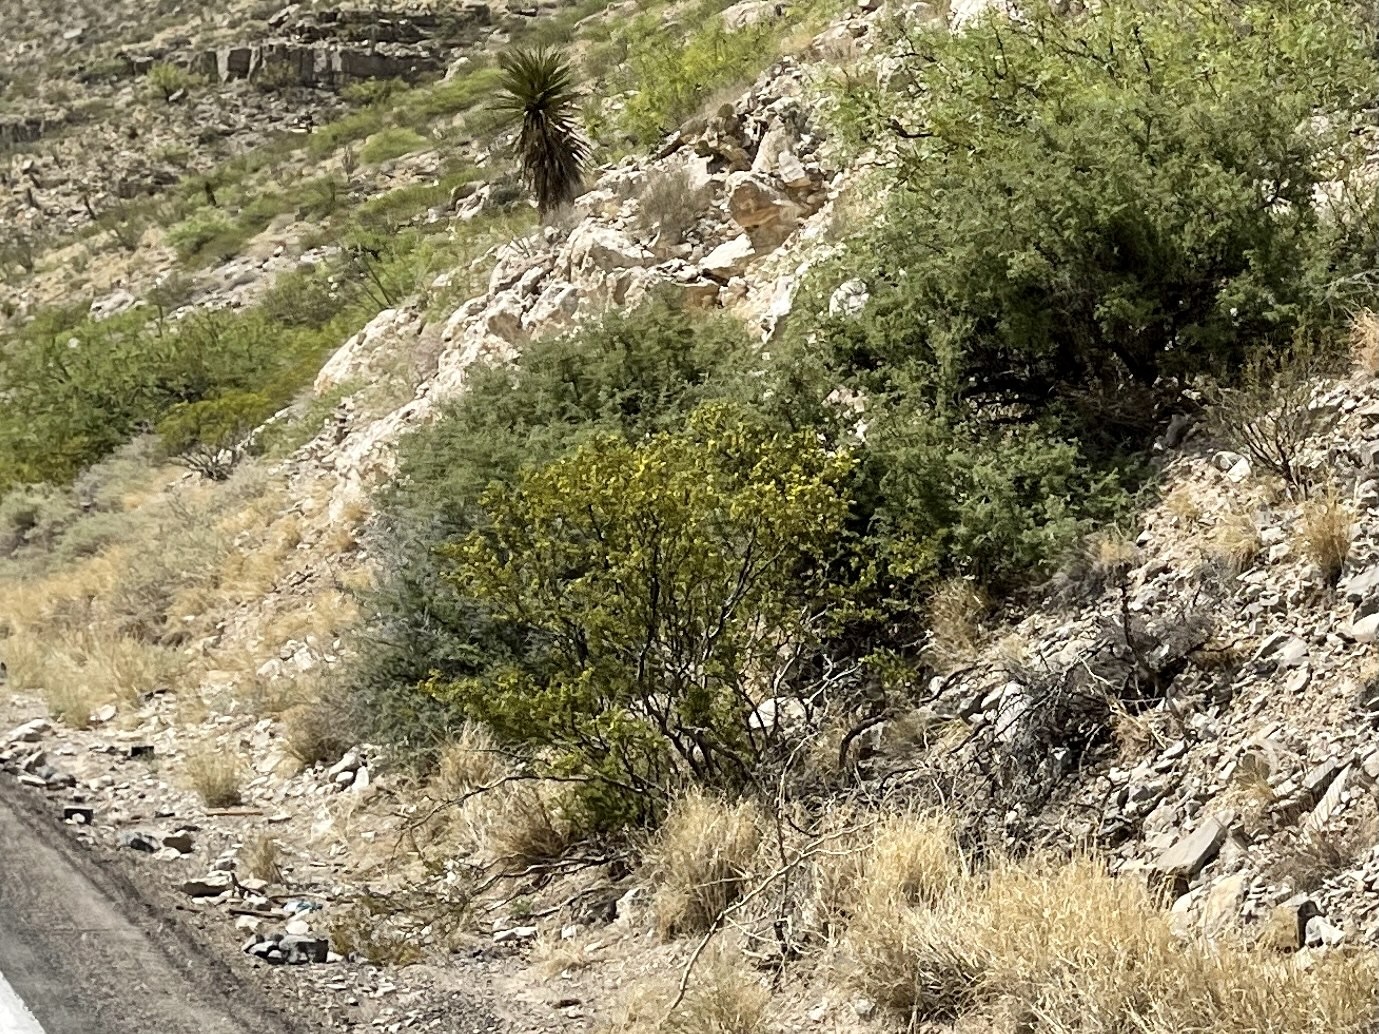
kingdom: Plantae
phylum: Tracheophyta
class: Magnoliopsida
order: Zygophyllales
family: Zygophyllaceae
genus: Larrea
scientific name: Larrea tridentata
